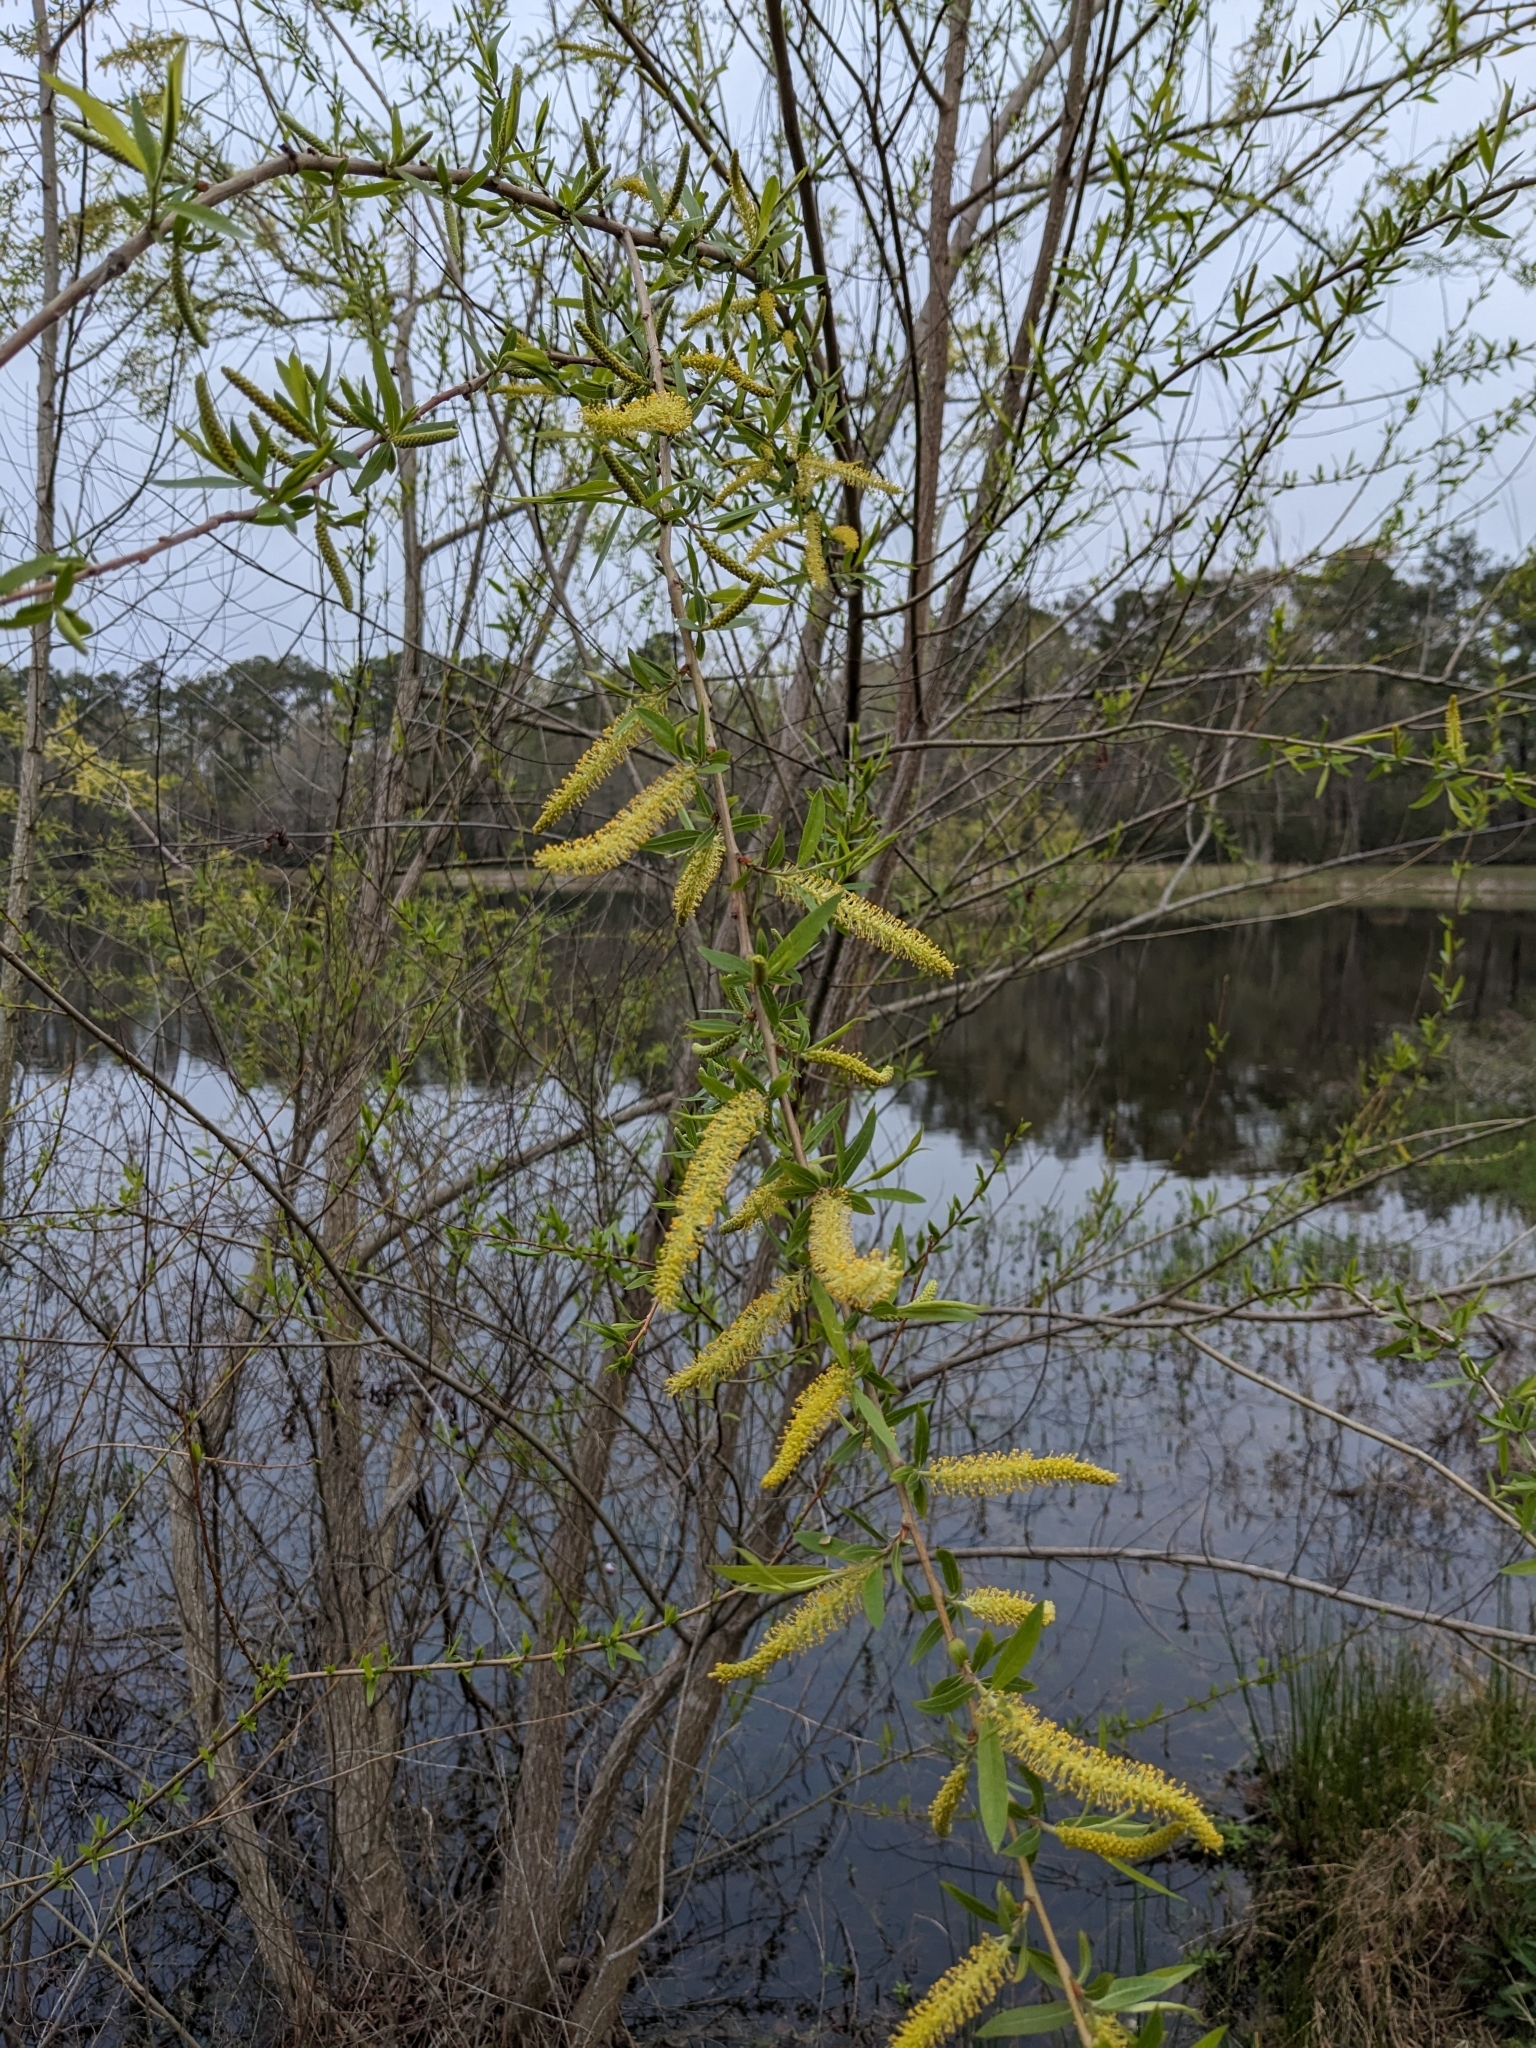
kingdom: Plantae
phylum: Tracheophyta
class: Magnoliopsida
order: Malpighiales
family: Salicaceae
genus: Salix
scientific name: Salix nigra
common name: Black willow
